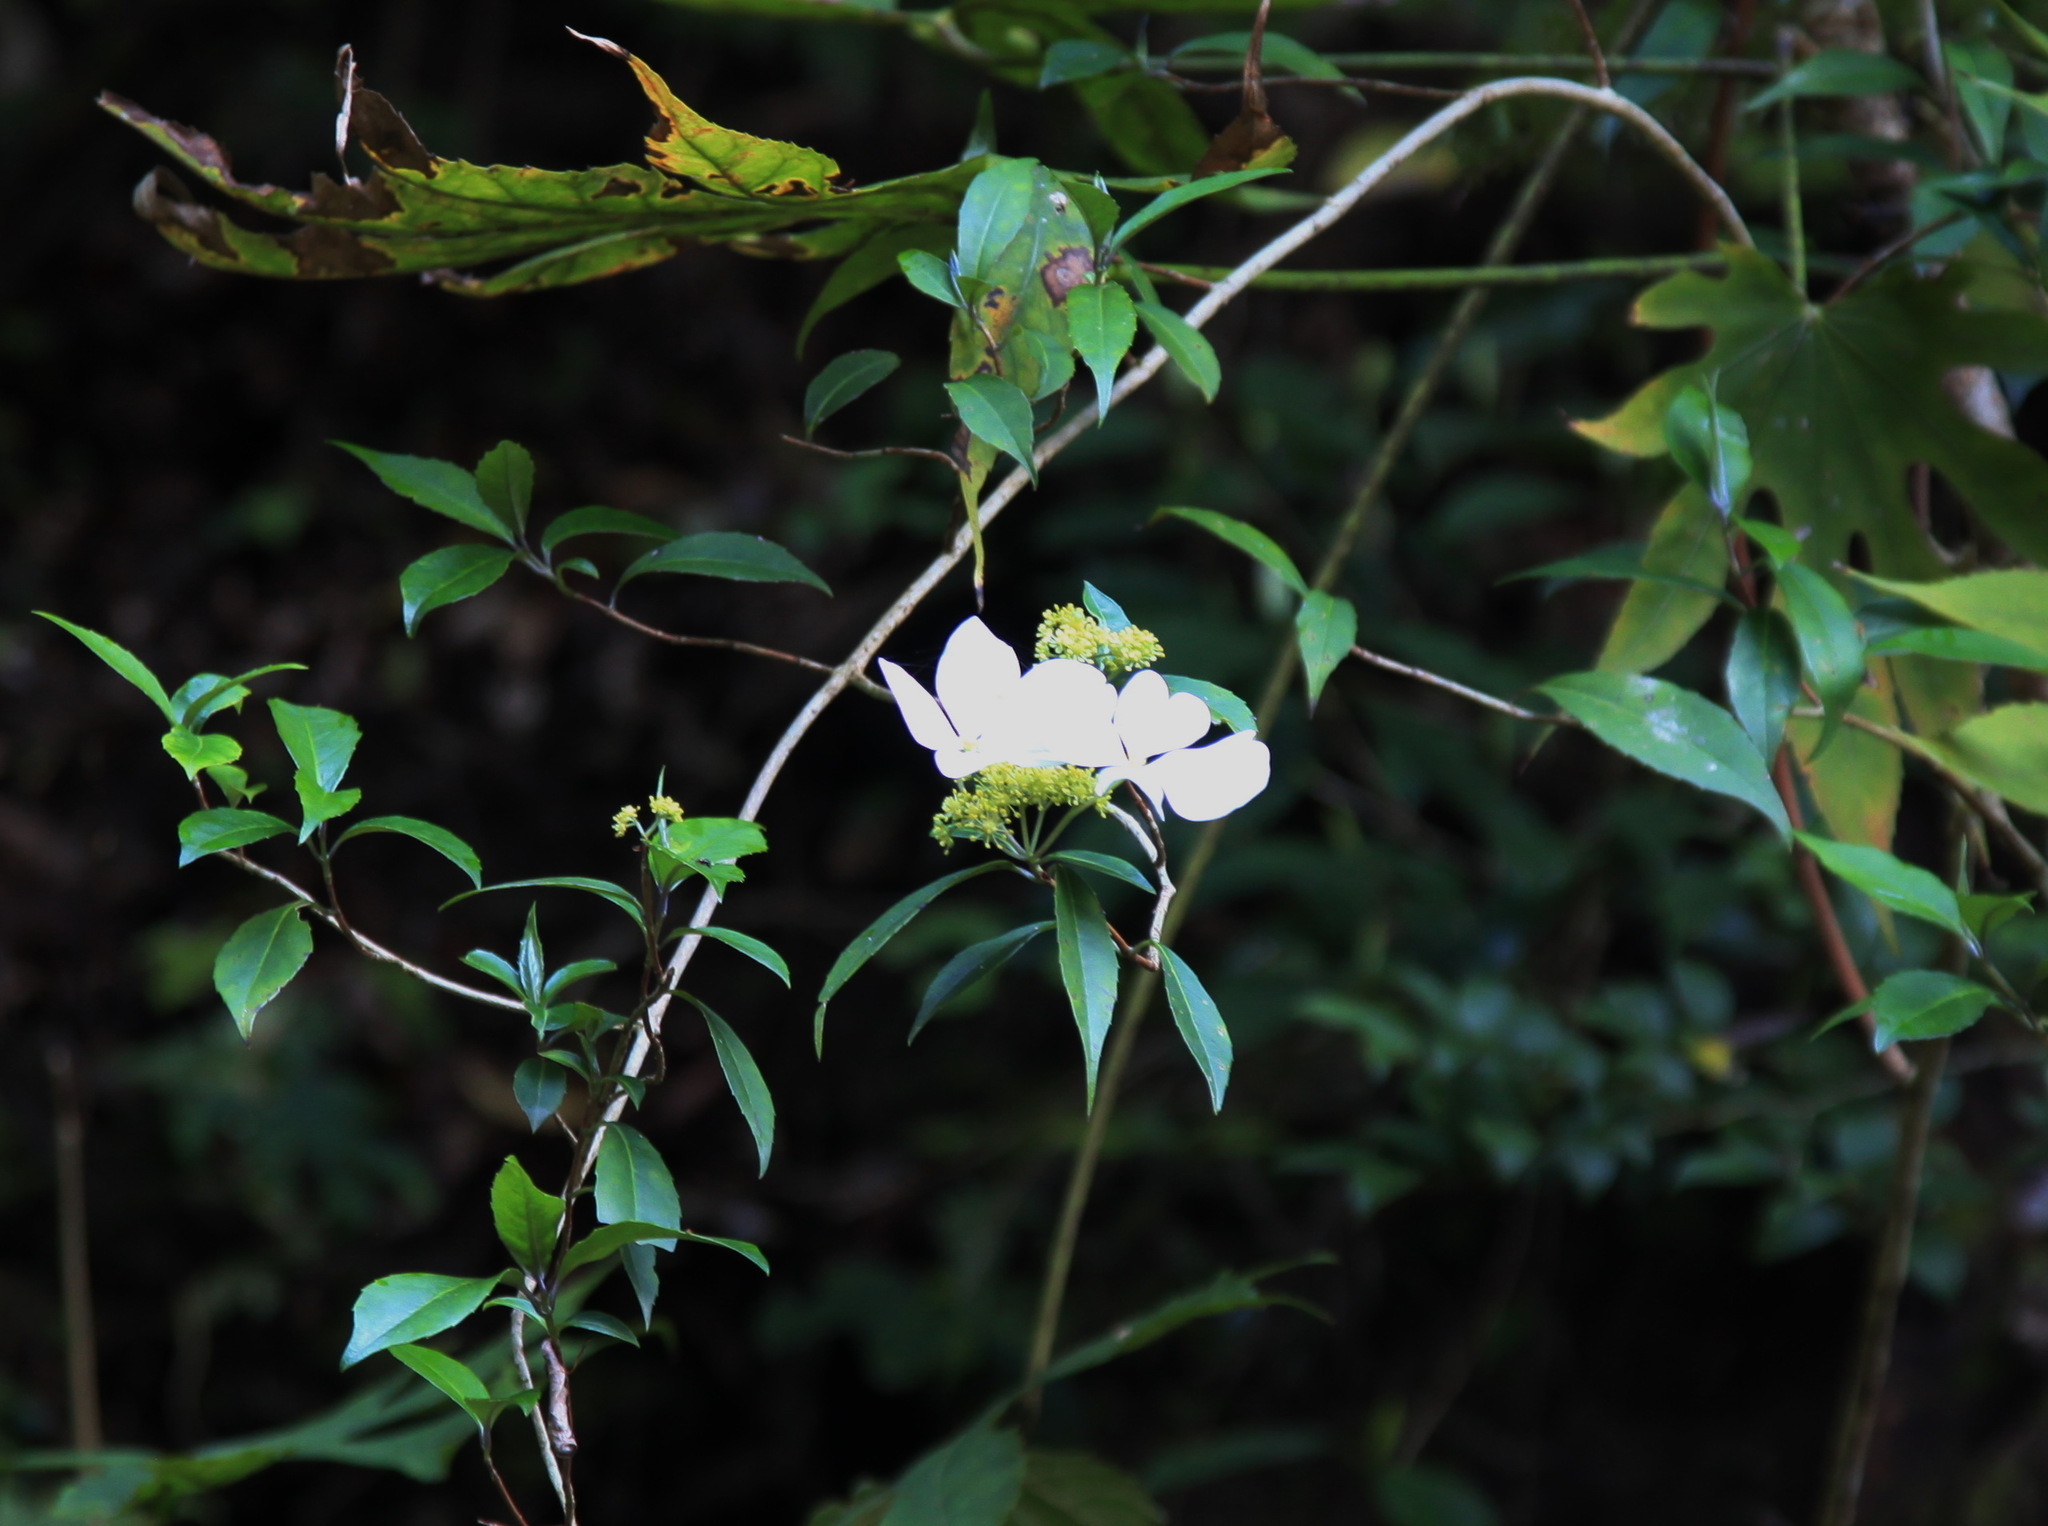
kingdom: Plantae
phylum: Tracheophyta
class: Magnoliopsida
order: Cornales
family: Hydrangeaceae
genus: Hydrangea
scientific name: Hydrangea chinensis
